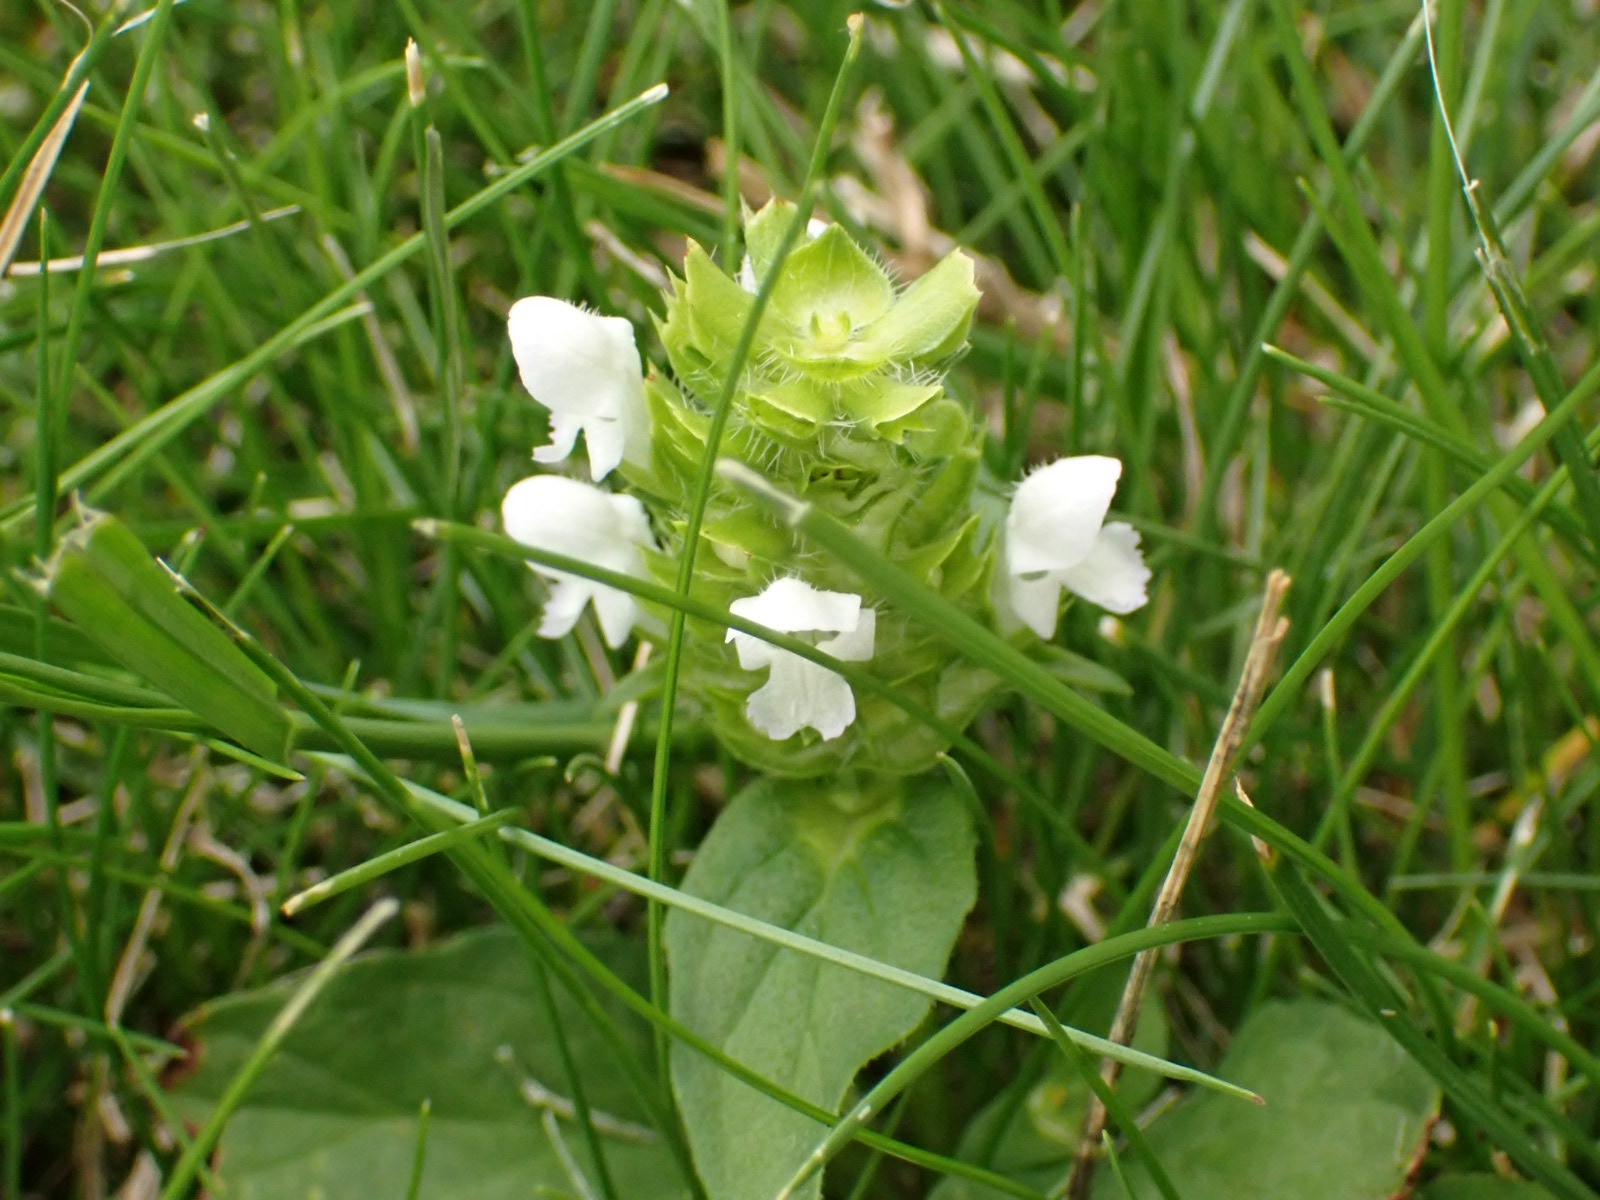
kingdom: Plantae
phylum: Tracheophyta
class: Magnoliopsida
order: Lamiales
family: Lamiaceae
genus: Prunella
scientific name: Prunella vulgaris
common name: Heal-all
